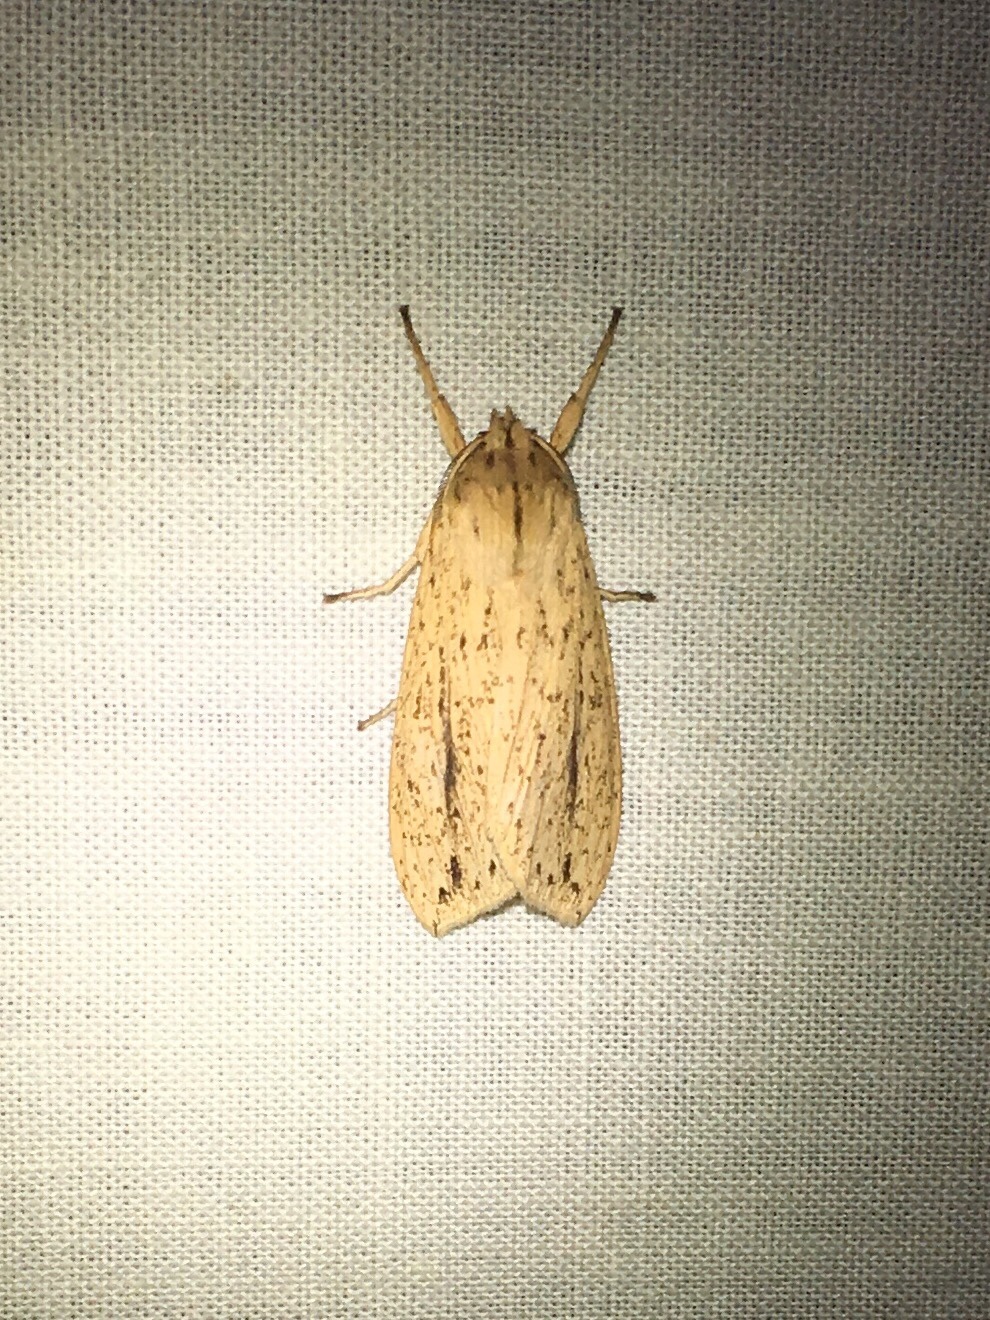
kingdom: Animalia
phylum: Arthropoda
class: Insecta
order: Lepidoptera
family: Erebidae
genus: Leucanopsis
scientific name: Leucanopsis longa
